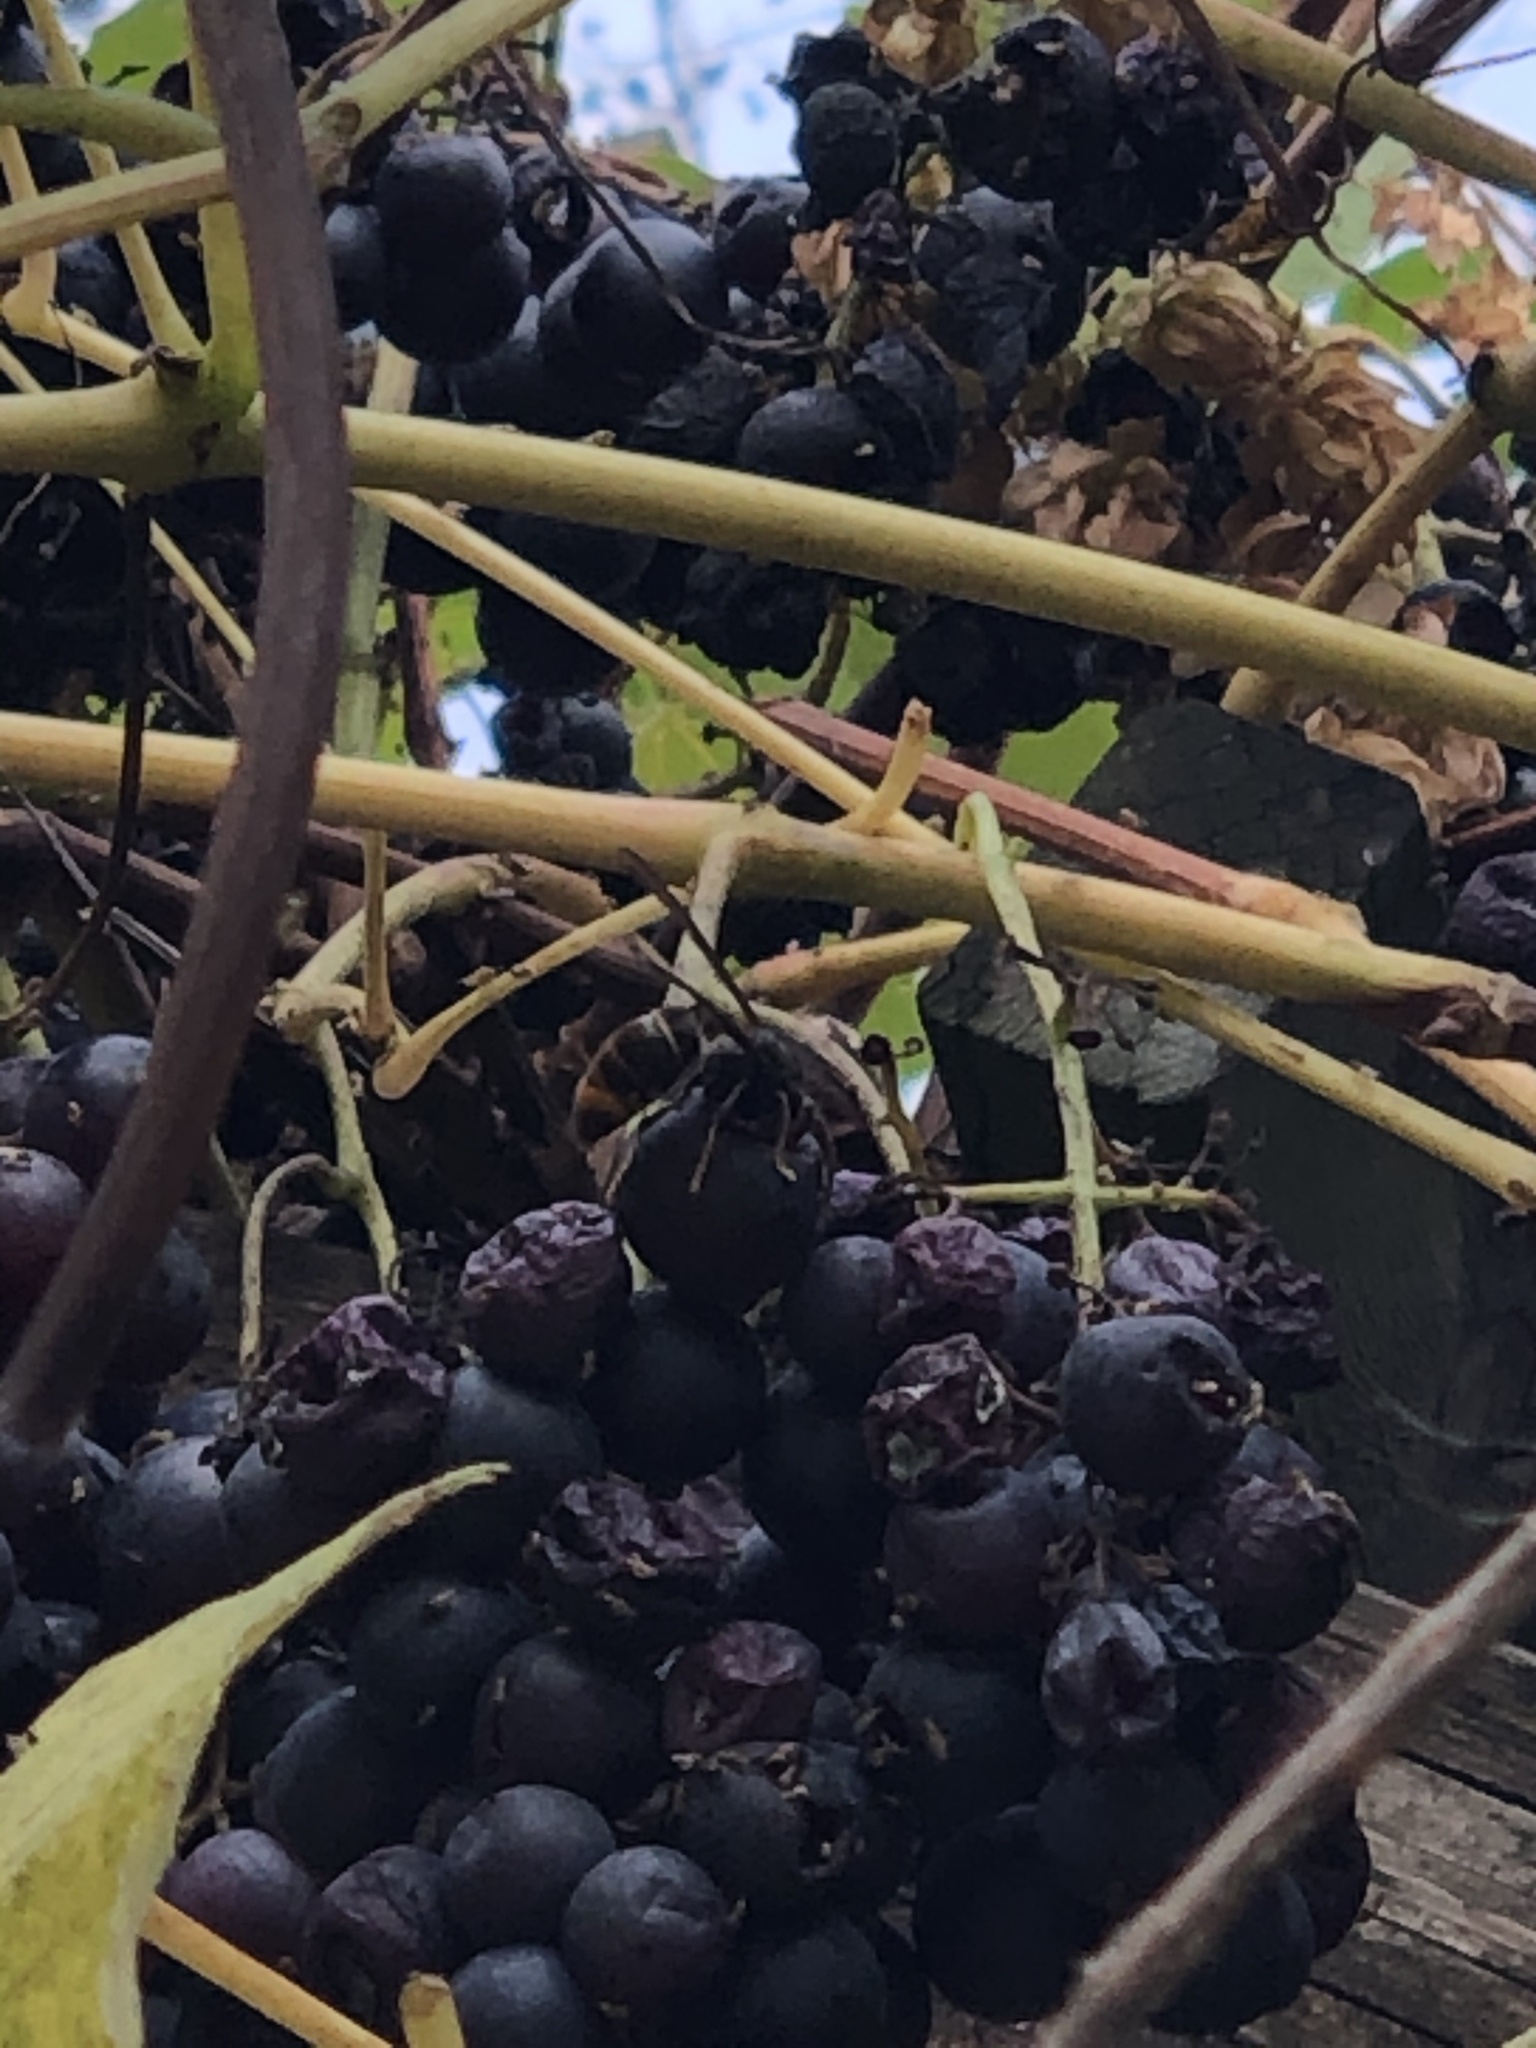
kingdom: Animalia
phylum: Arthropoda
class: Insecta
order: Hymenoptera
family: Vespidae
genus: Vespa
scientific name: Vespa velutina
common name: Asian hornet
